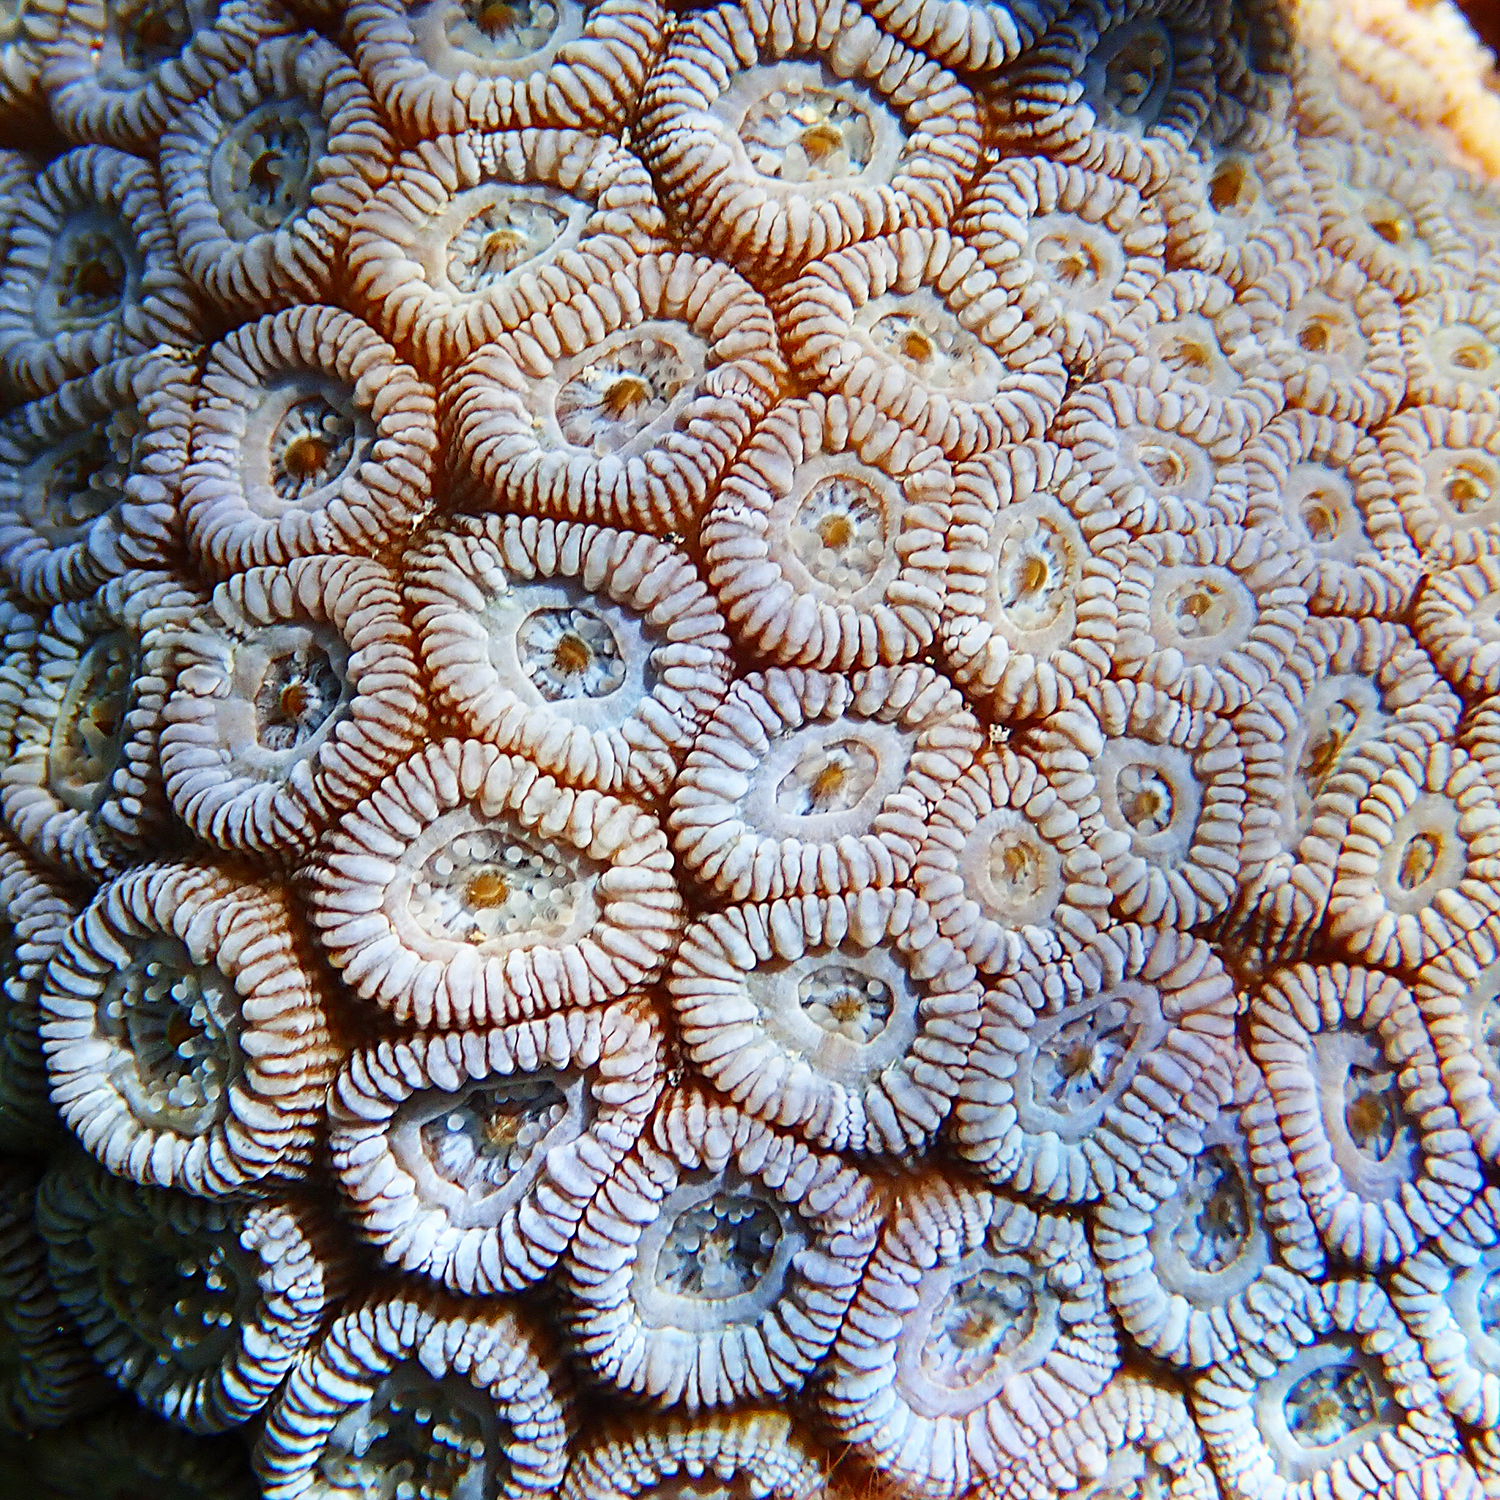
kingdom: Animalia
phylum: Cnidaria
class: Anthozoa
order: Scleractinia
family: Merulinidae
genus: Astrea
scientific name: Astrea curta
